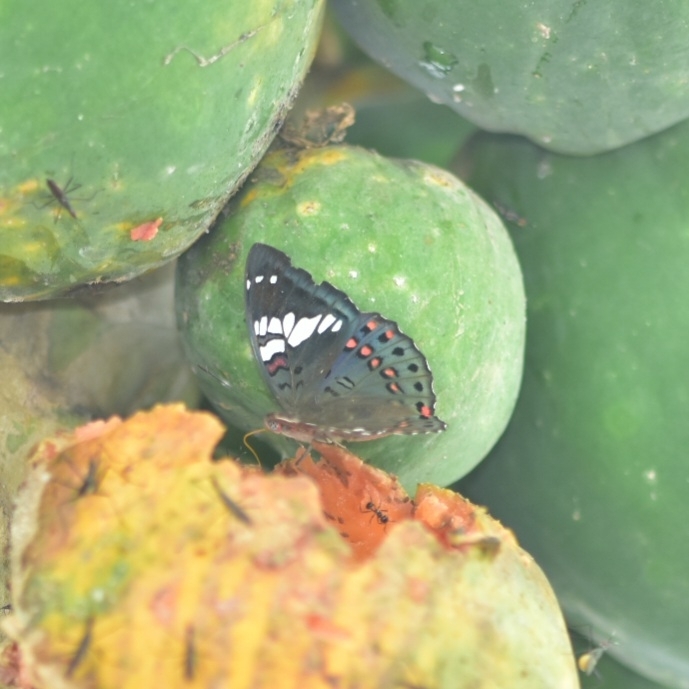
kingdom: Animalia
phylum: Arthropoda
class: Insecta
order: Lepidoptera
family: Nymphalidae
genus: Euthalia
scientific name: Euthalia lubentina
